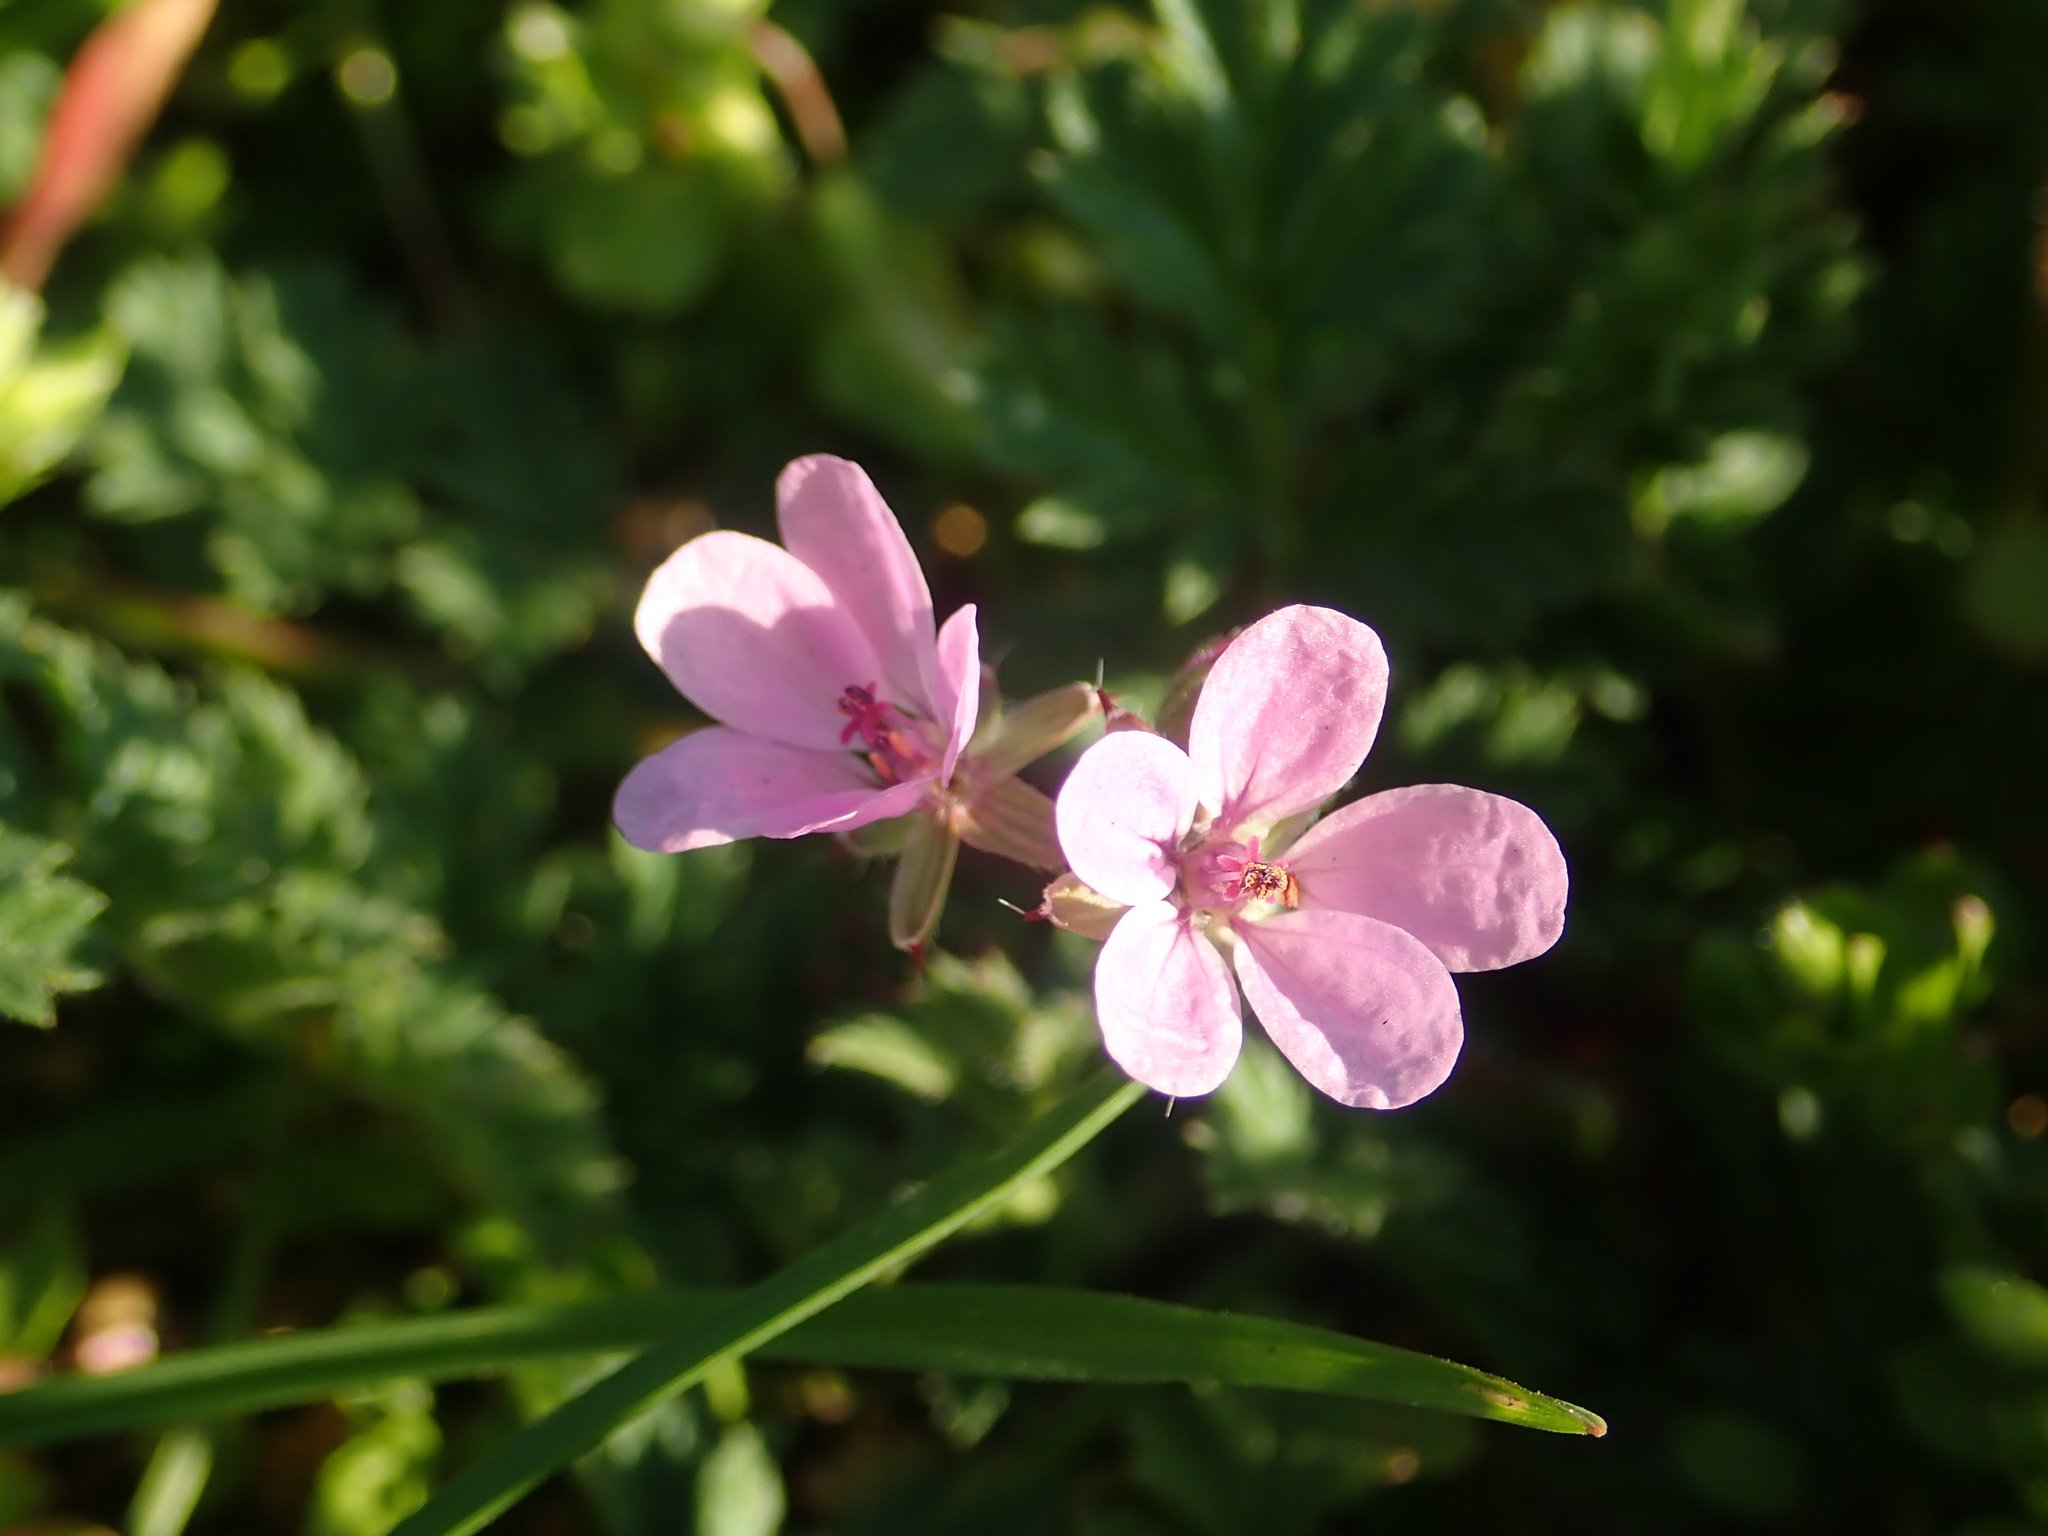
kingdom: Plantae
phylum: Tracheophyta
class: Magnoliopsida
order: Geraniales
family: Geraniaceae
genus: Erodium
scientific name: Erodium cicutarium
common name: Common stork's-bill
